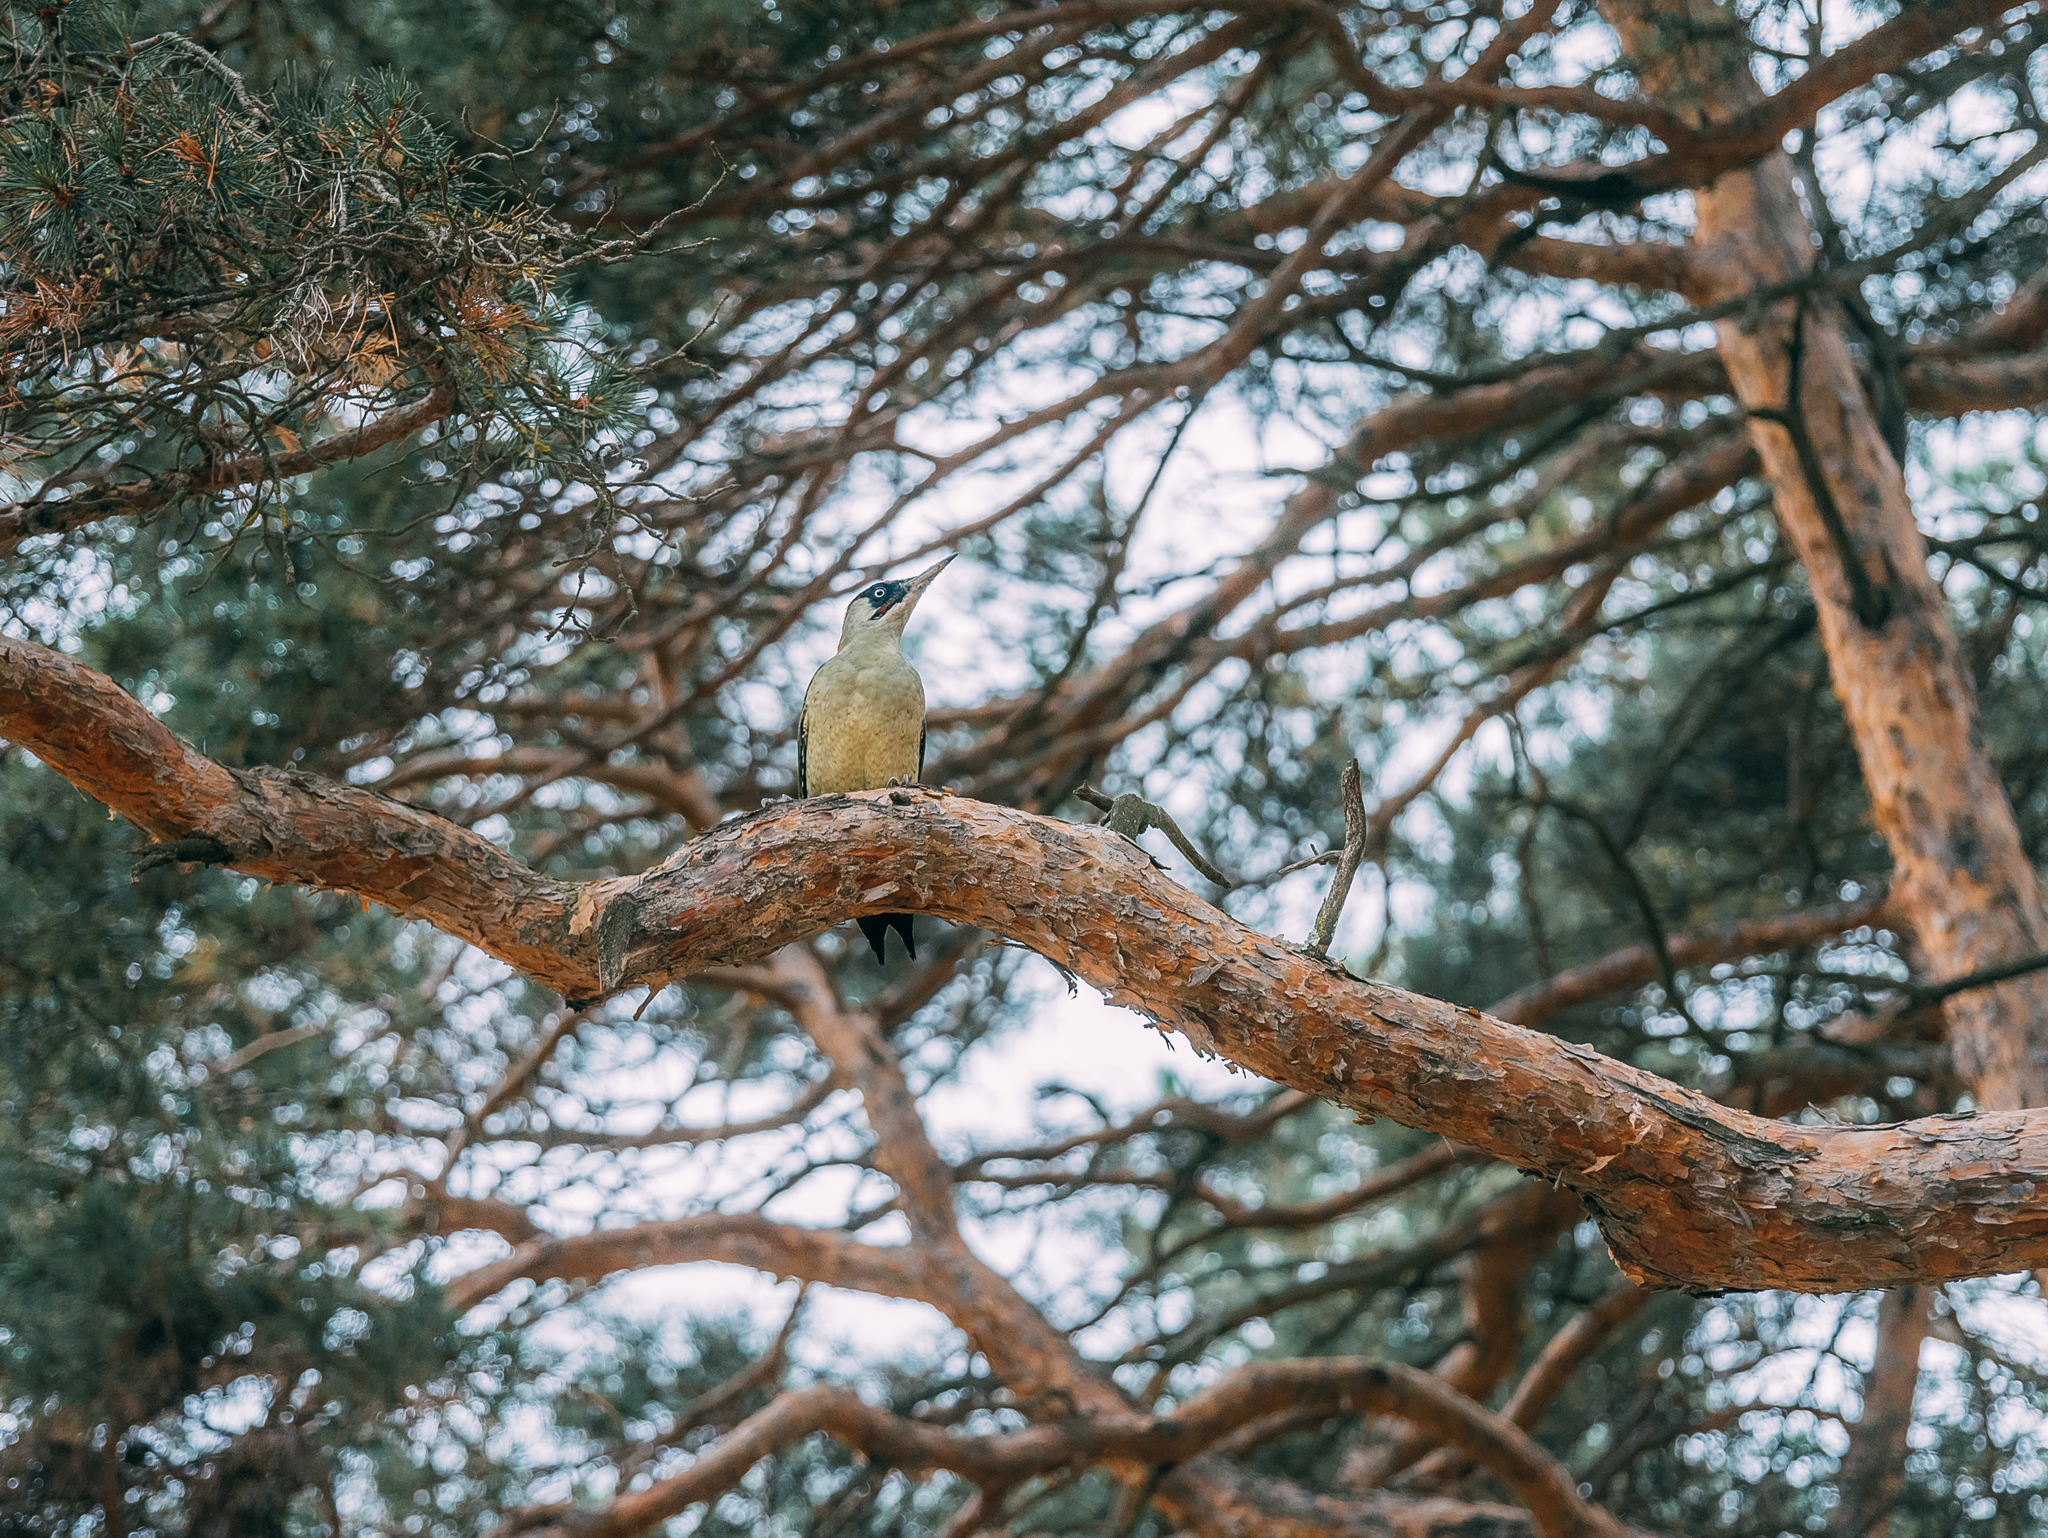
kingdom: Animalia
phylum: Chordata
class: Aves
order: Piciformes
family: Picidae
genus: Picus
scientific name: Picus viridis
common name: European green woodpecker
